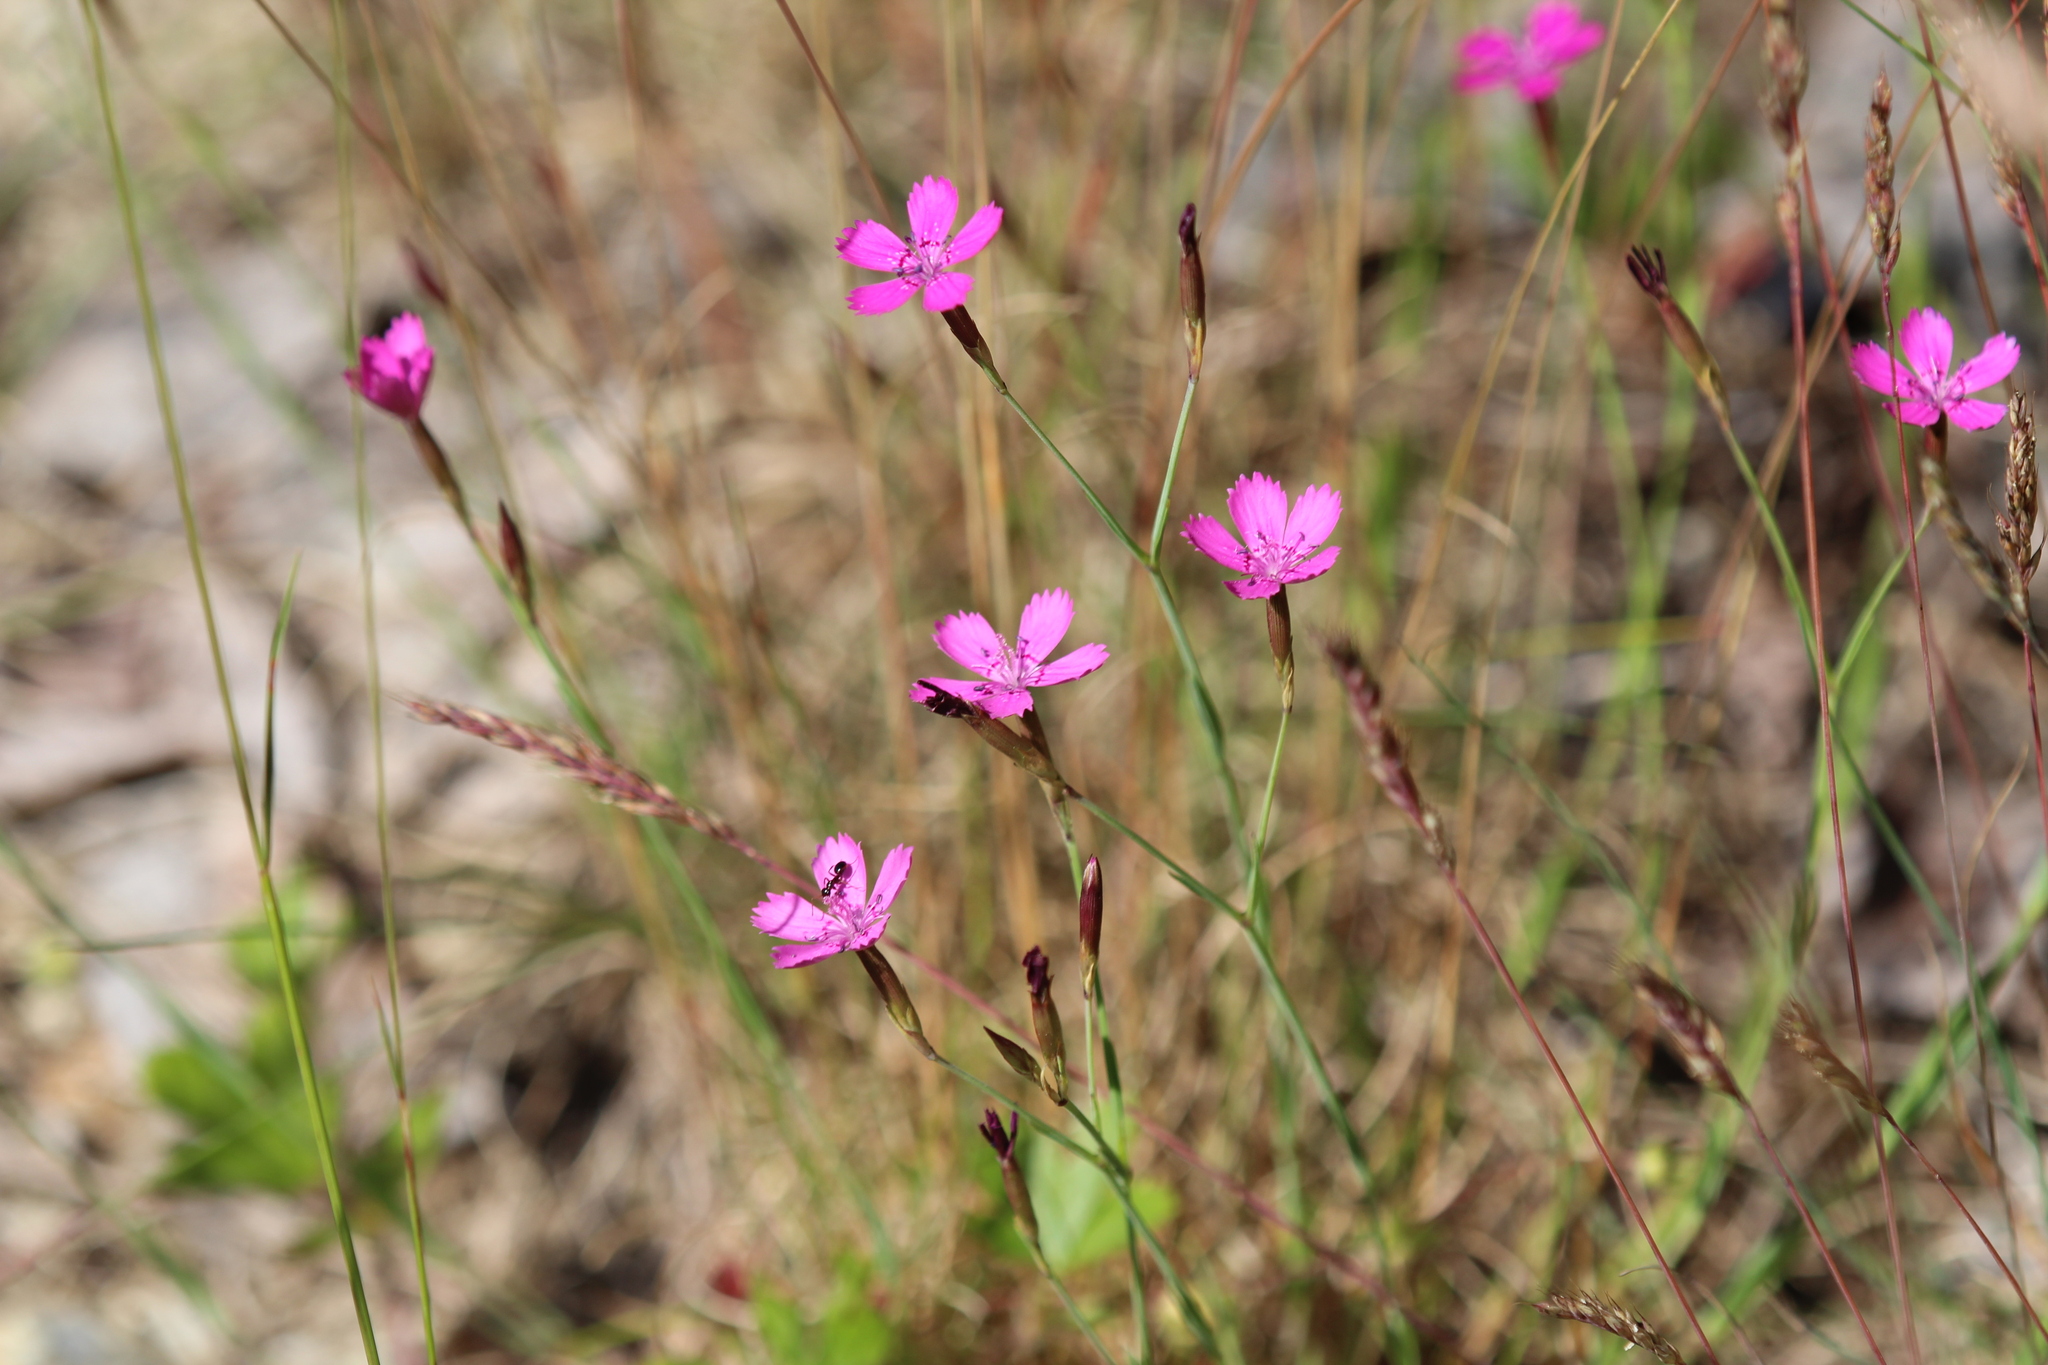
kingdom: Plantae
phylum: Tracheophyta
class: Magnoliopsida
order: Caryophyllales
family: Caryophyllaceae
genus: Dianthus
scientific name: Dianthus deltoides
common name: Maiden pink
